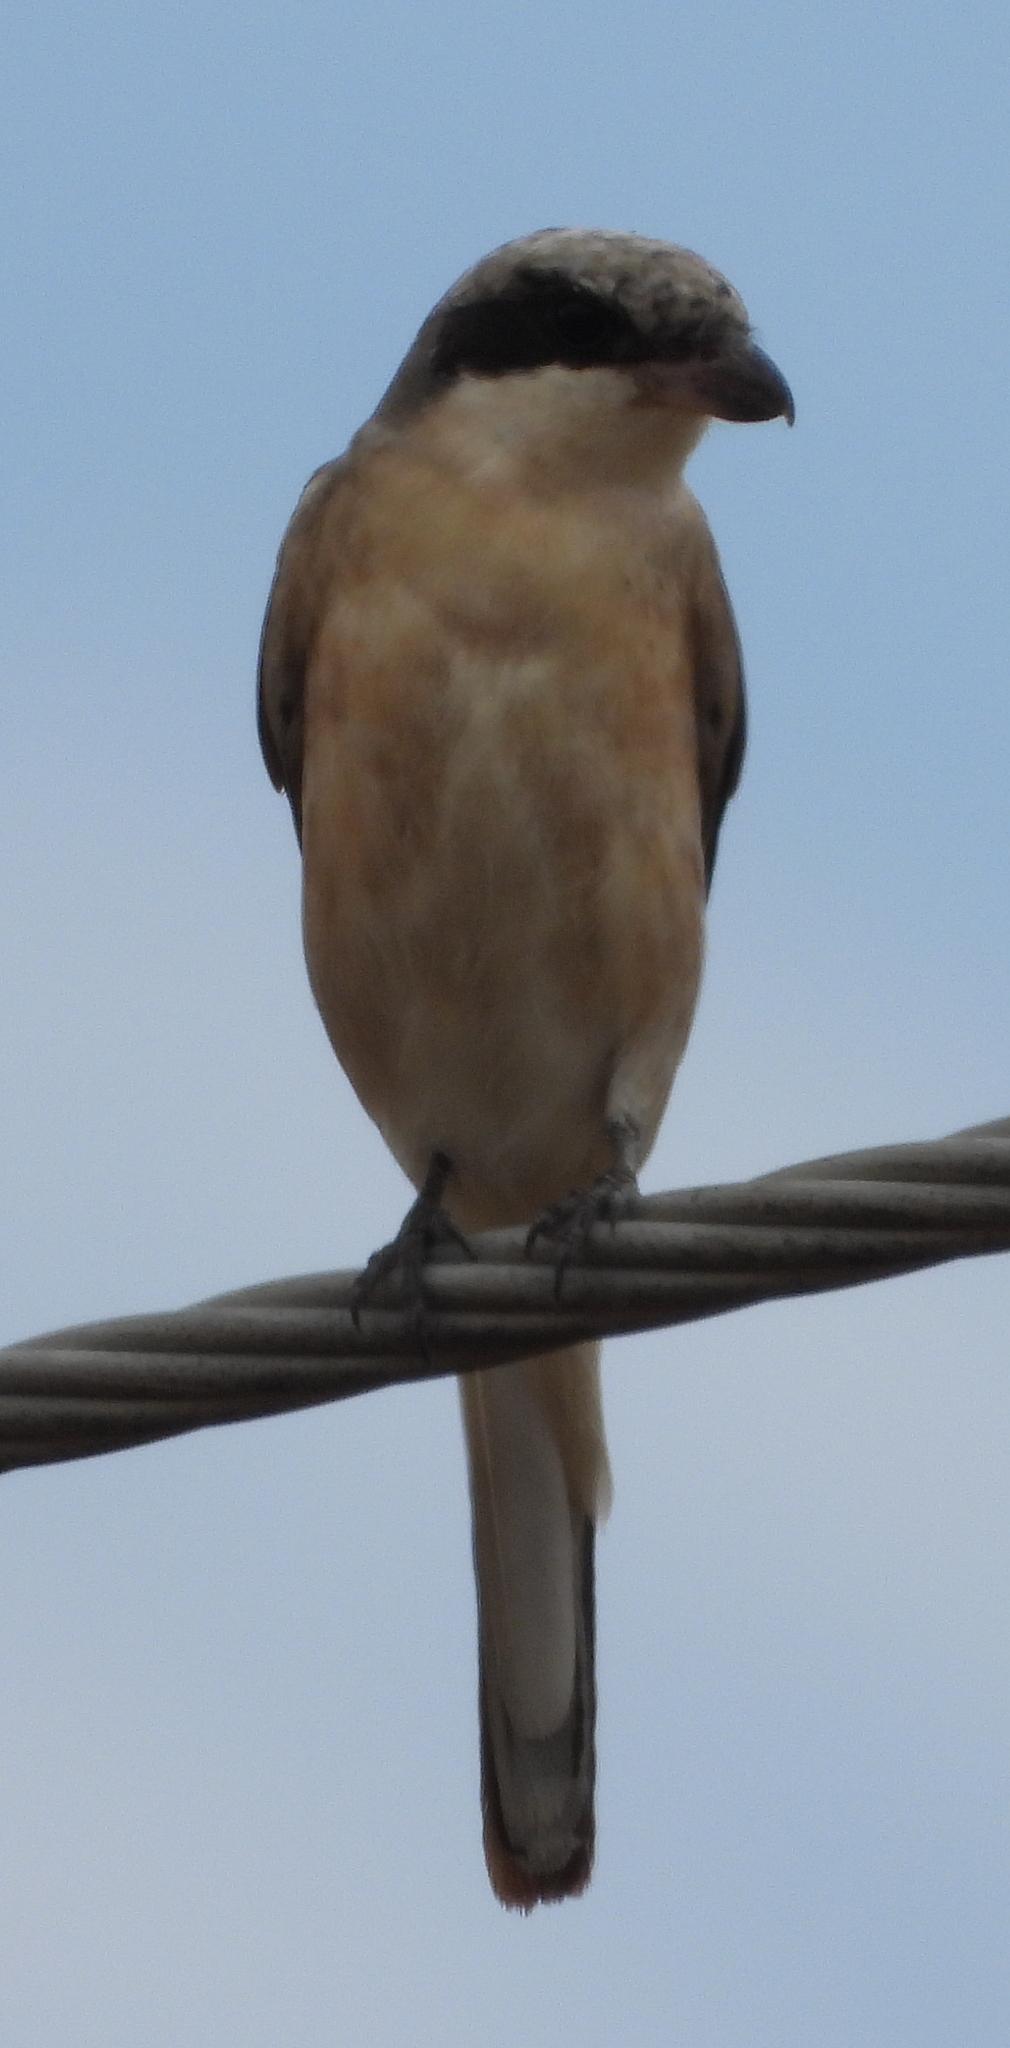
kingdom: Animalia
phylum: Chordata
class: Aves
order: Passeriformes
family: Laniidae
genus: Lanius
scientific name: Lanius minor
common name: Lesser grey shrike
